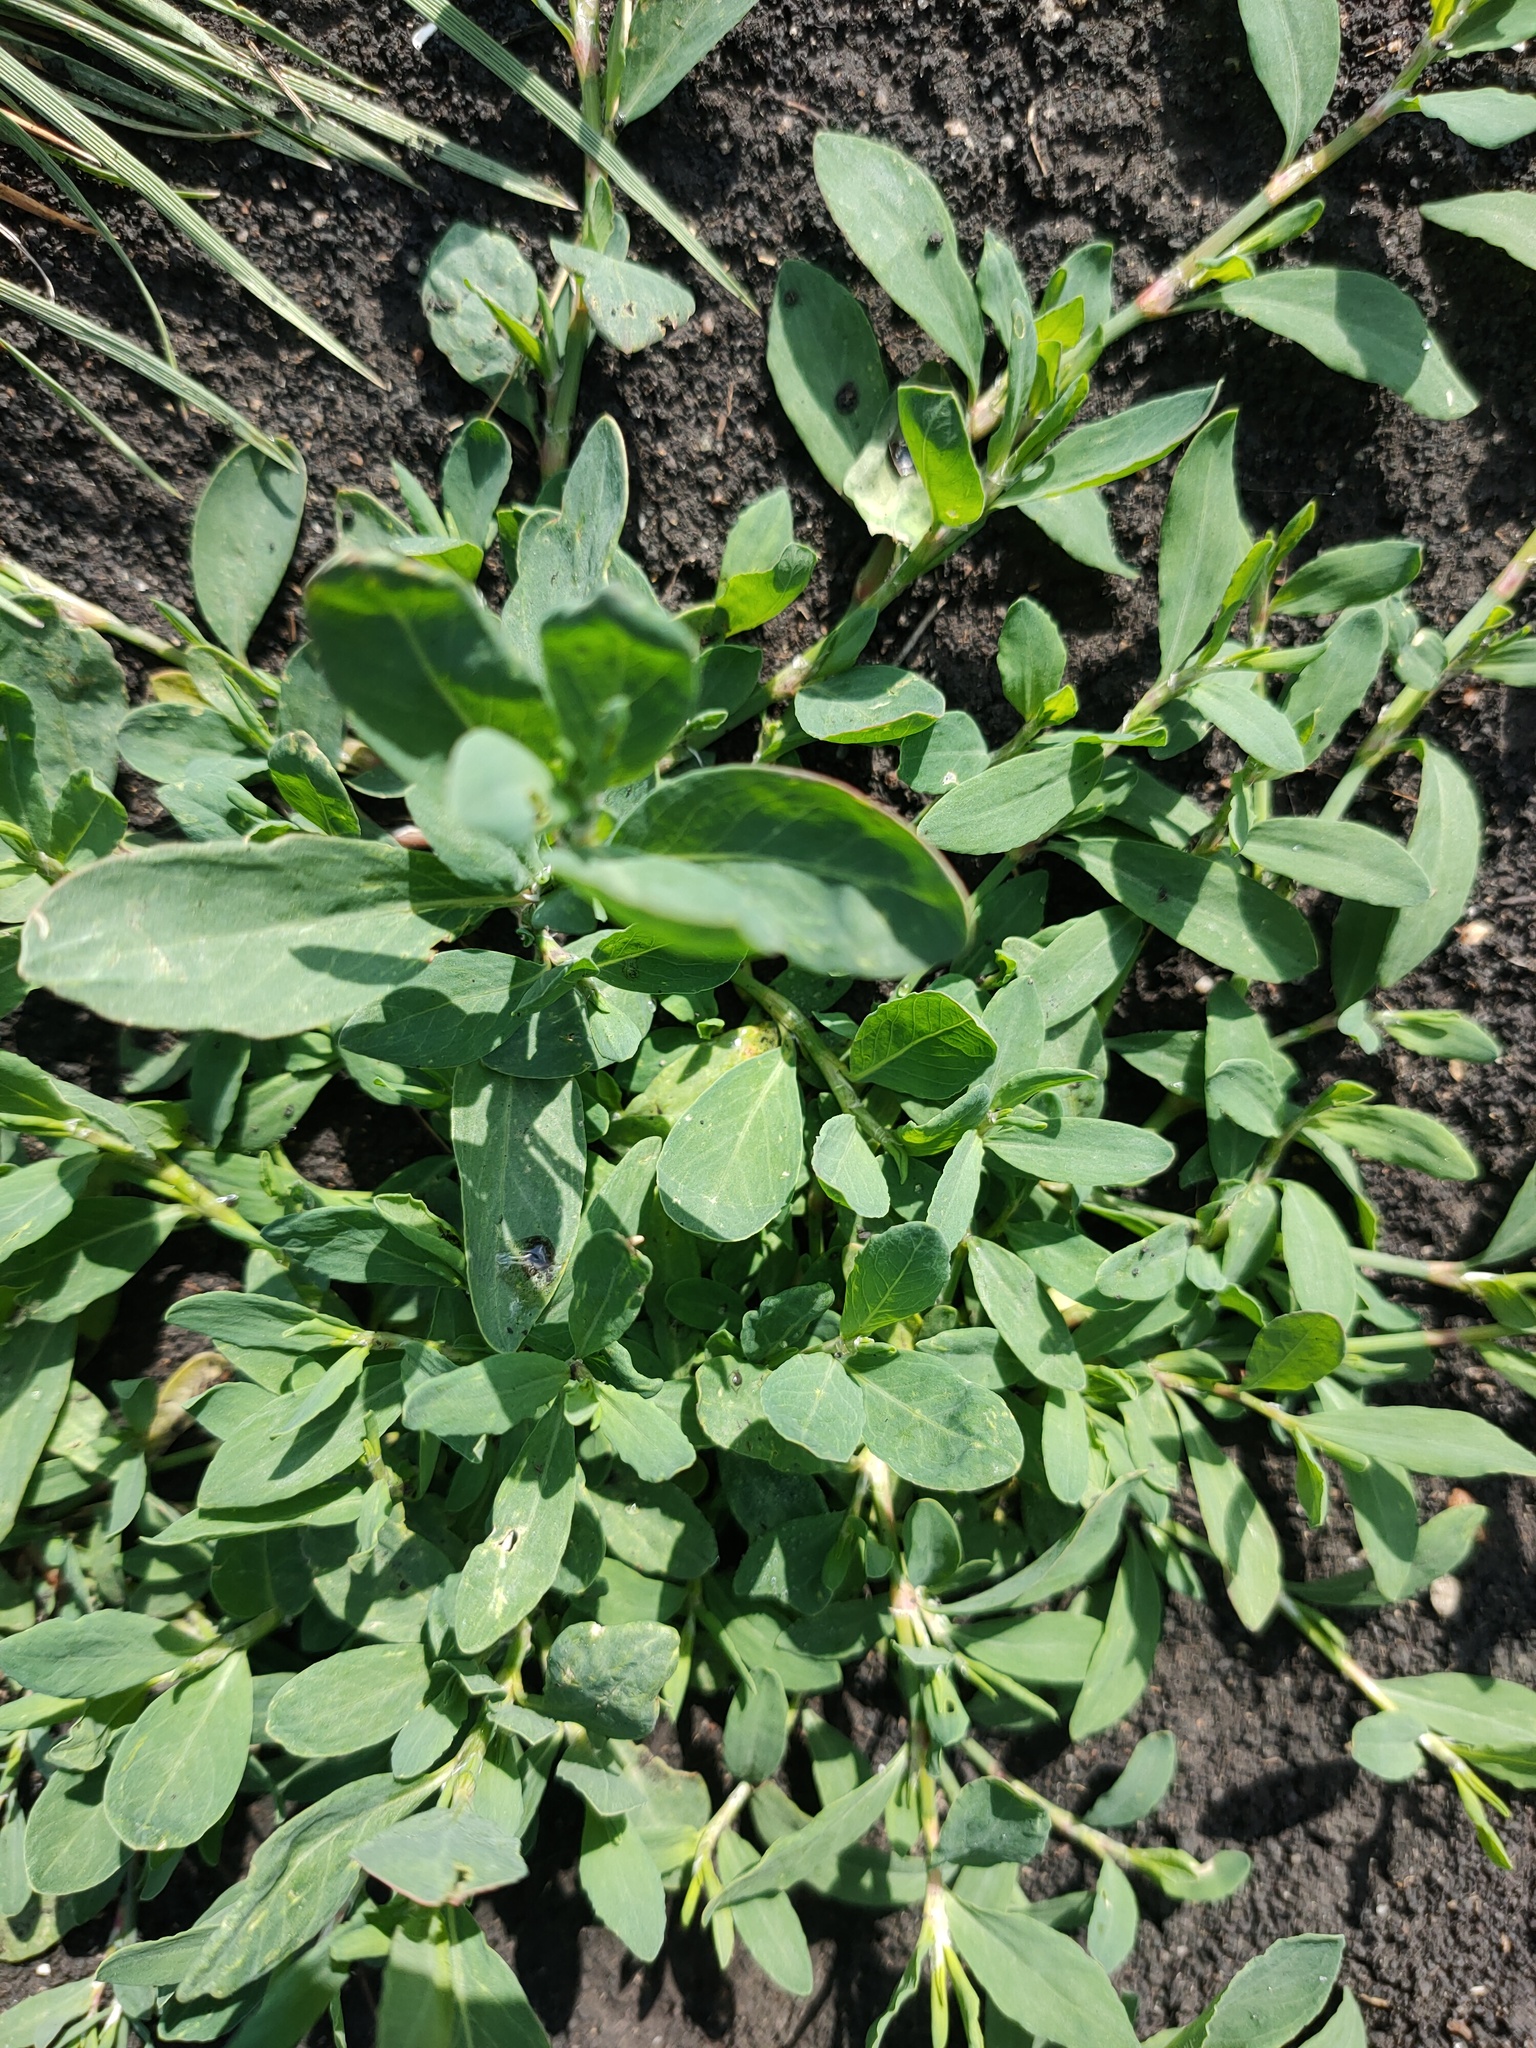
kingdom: Plantae
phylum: Tracheophyta
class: Magnoliopsida
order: Caryophyllales
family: Polygonaceae
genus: Polygonum
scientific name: Polygonum
